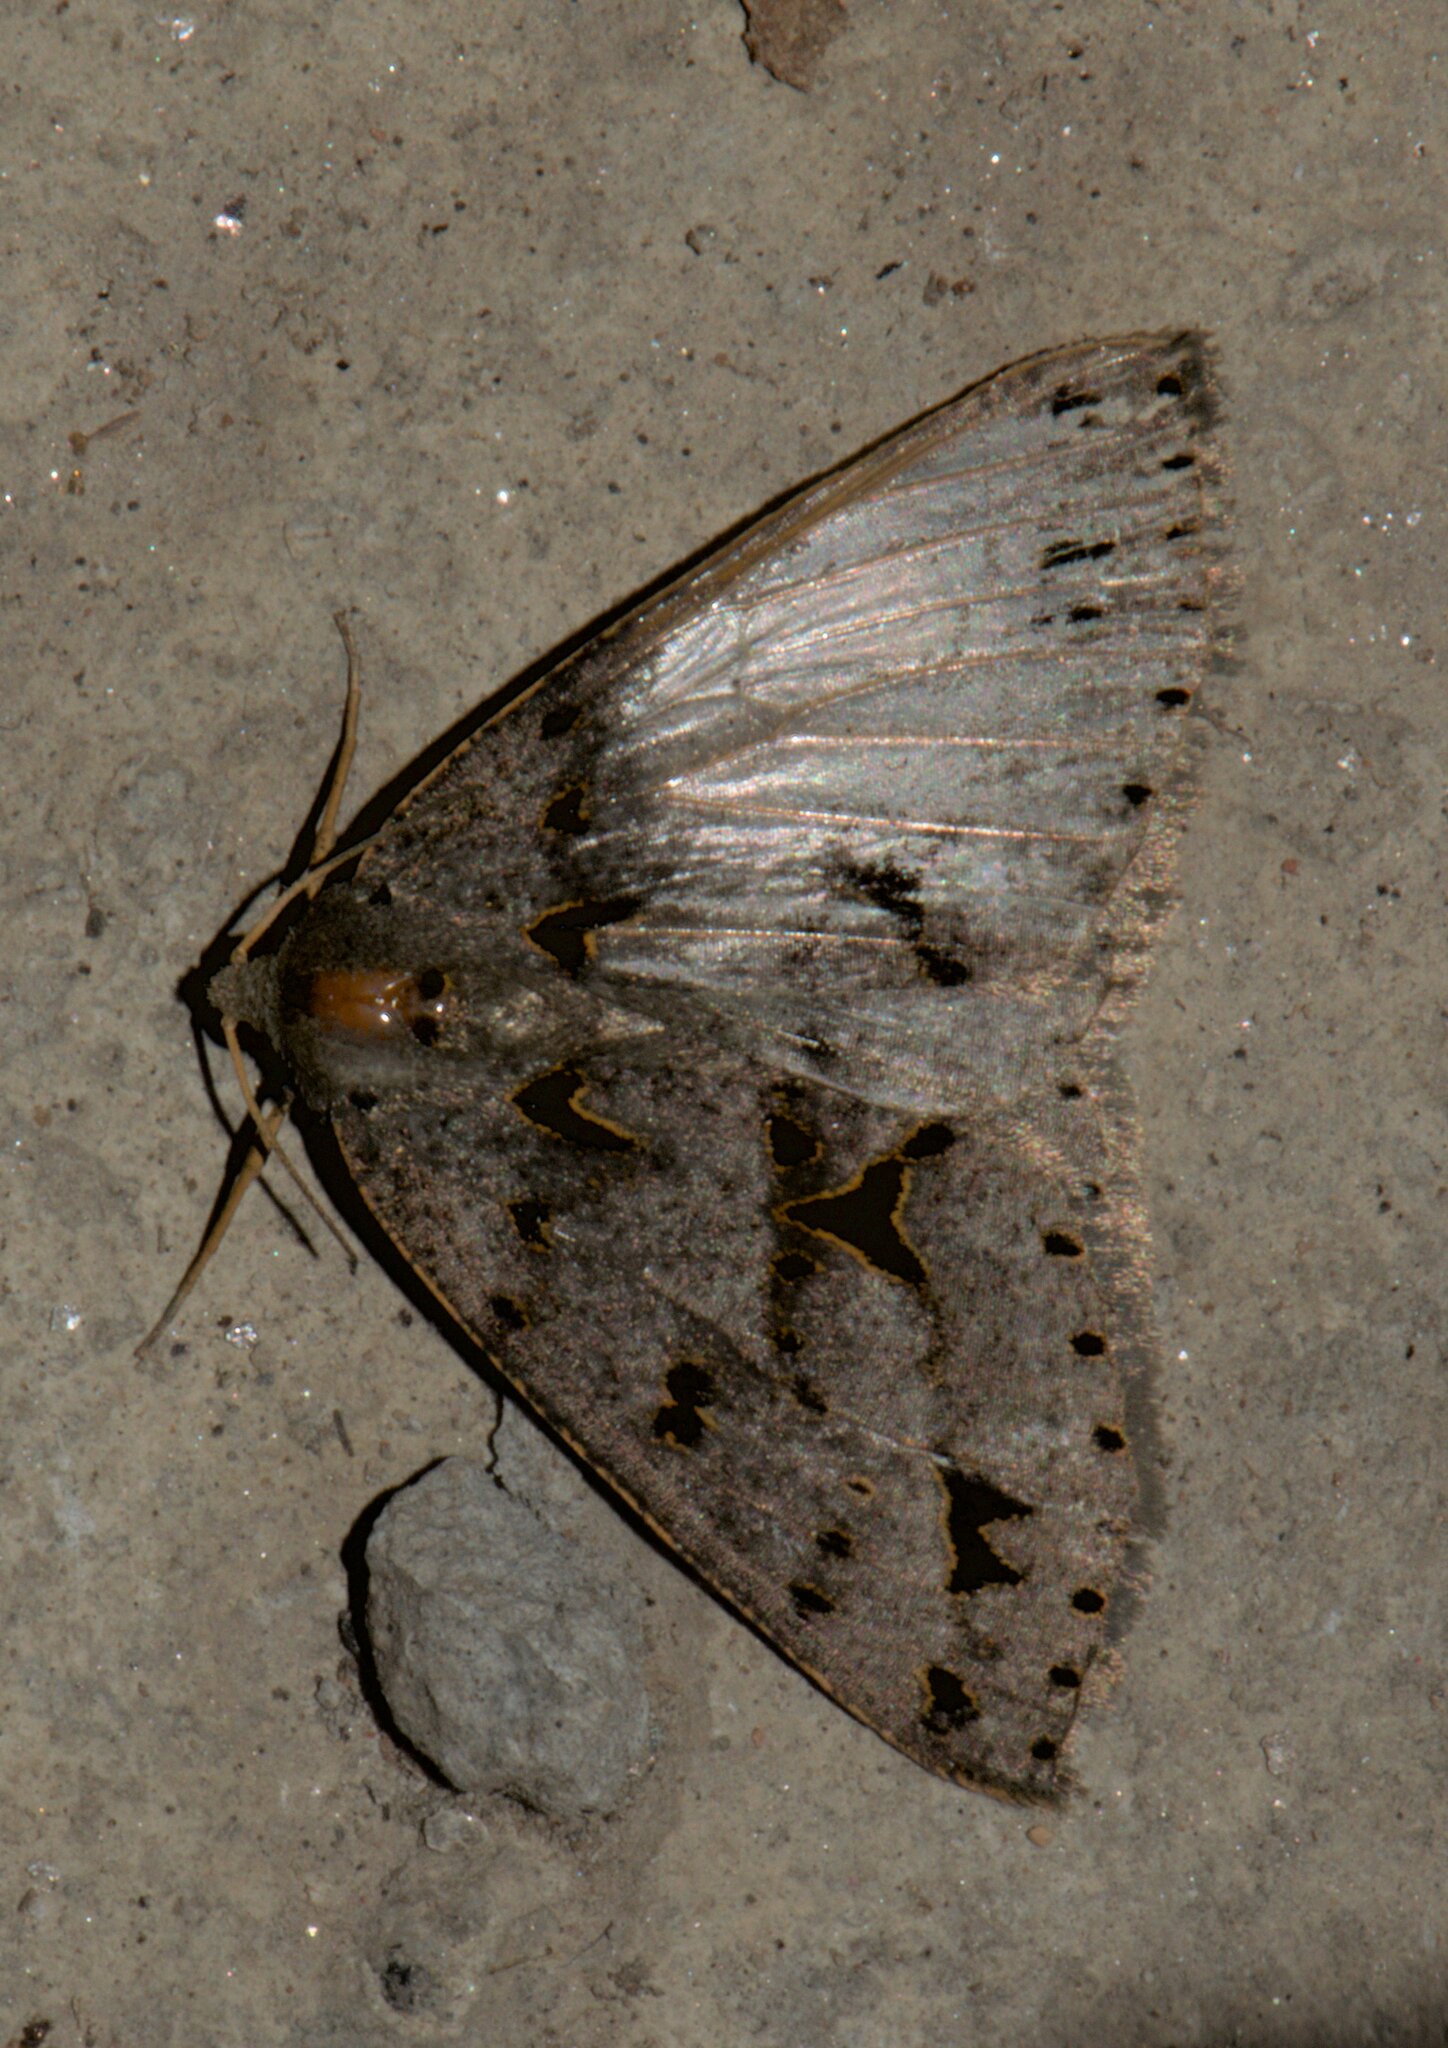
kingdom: Animalia
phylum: Arthropoda
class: Insecta
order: Lepidoptera
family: Geometridae
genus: Psyra
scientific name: Psyra angulifera
